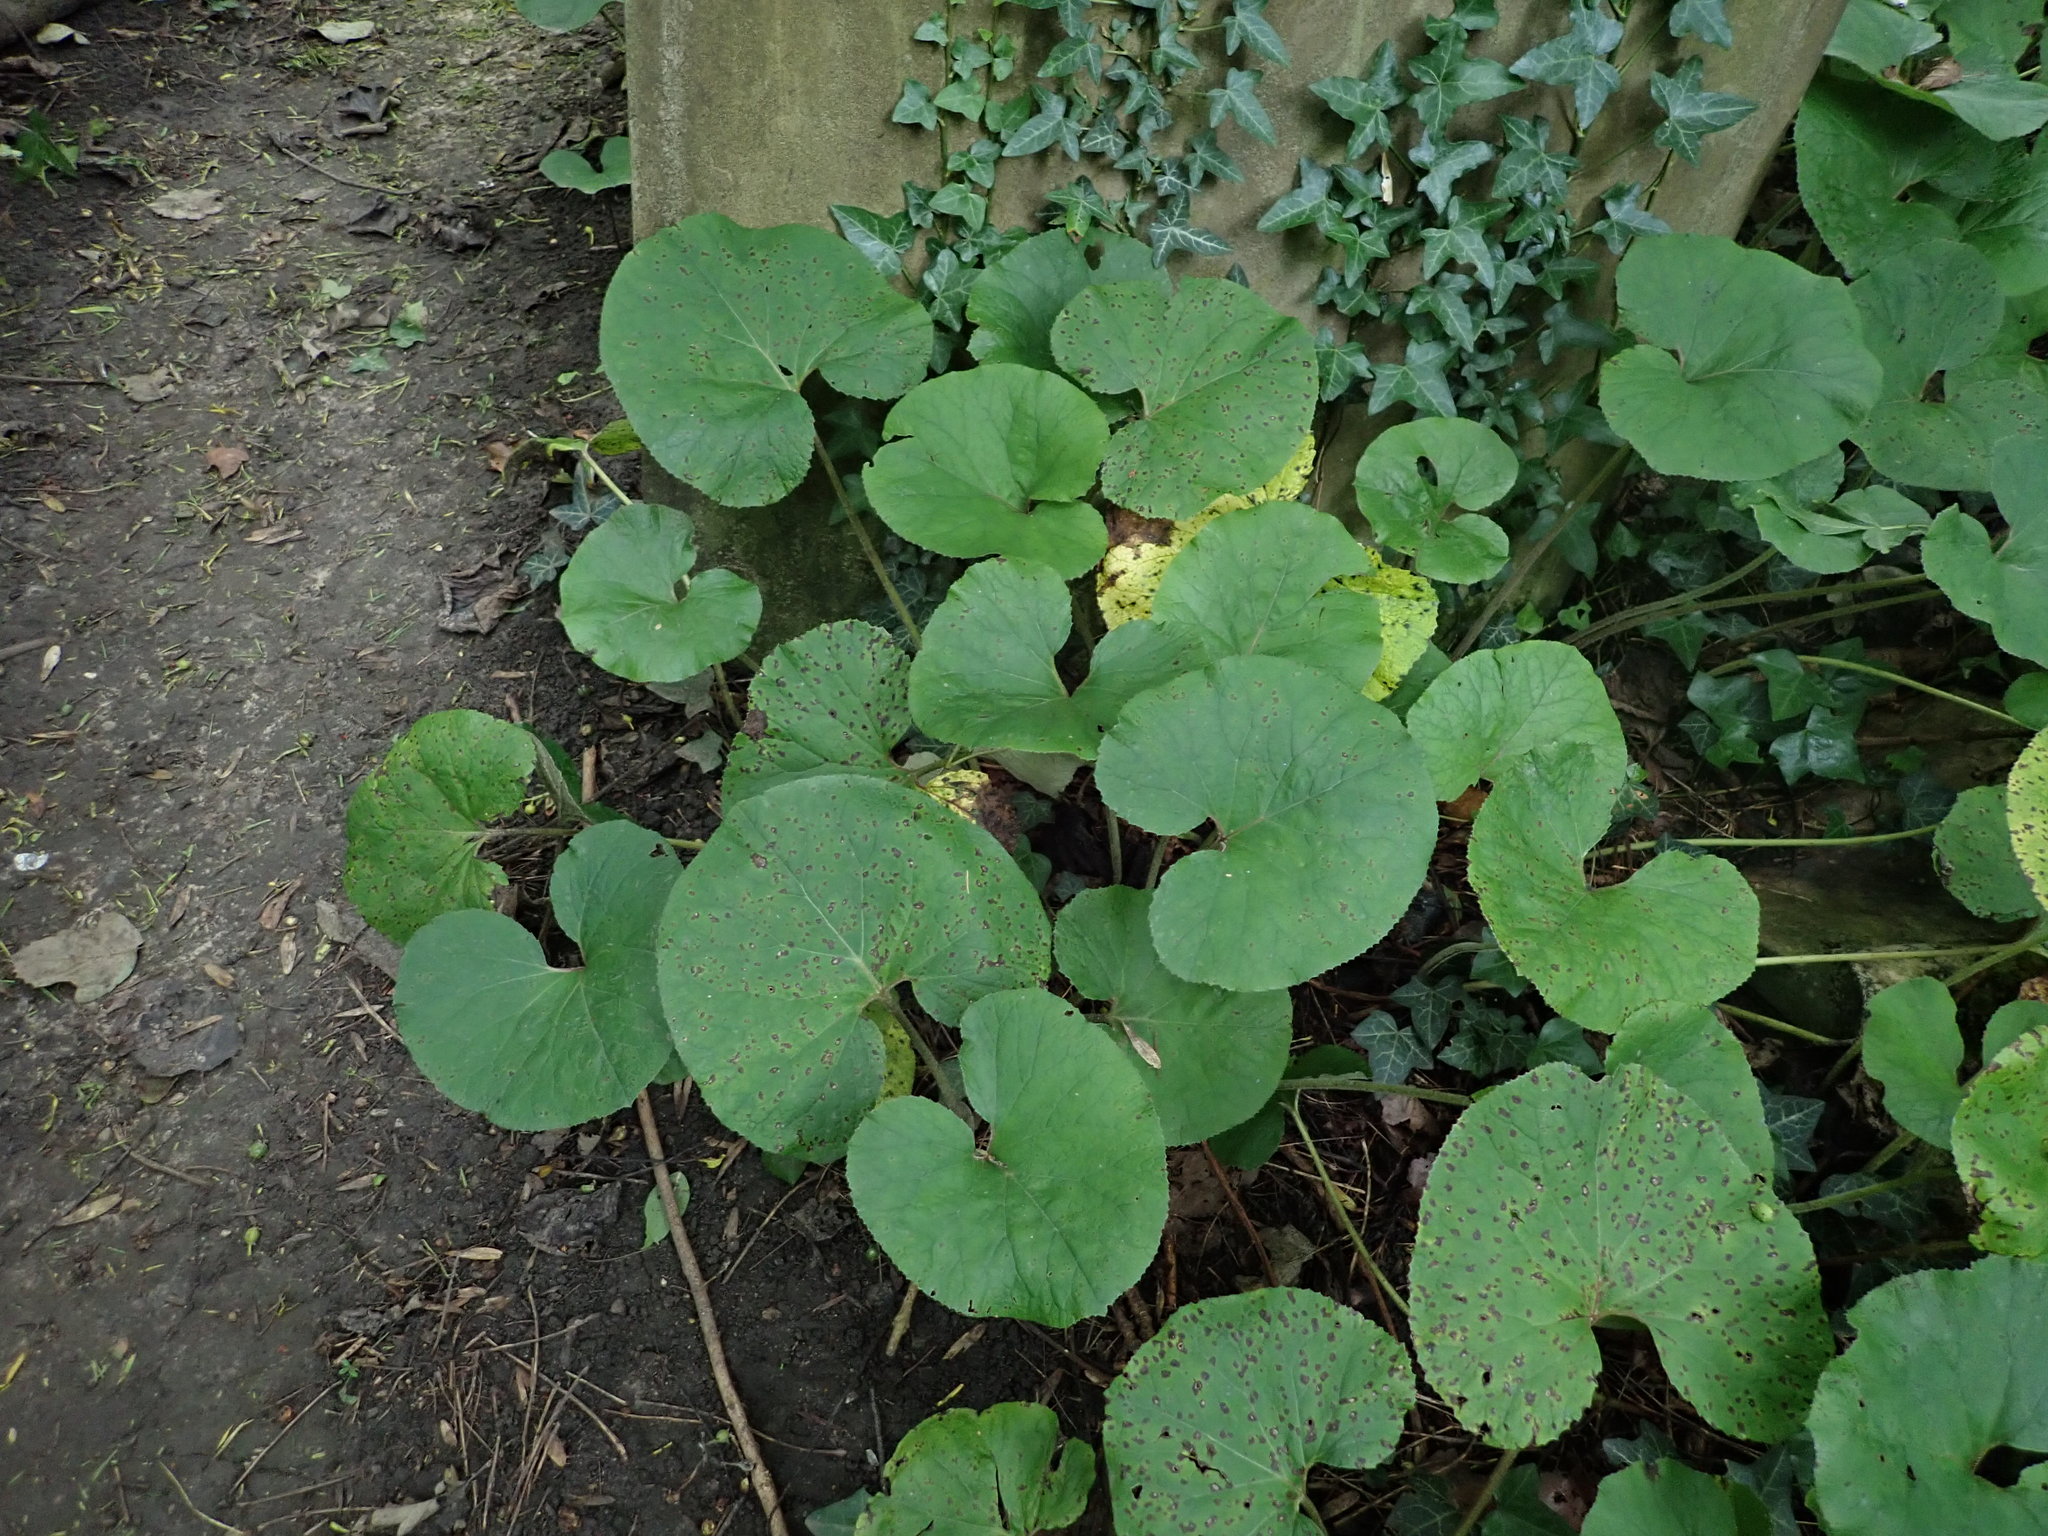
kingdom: Plantae
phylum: Tracheophyta
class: Magnoliopsida
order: Asterales
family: Asteraceae
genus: Petasites
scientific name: Petasites pyrenaicus
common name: Winter heliotrope
